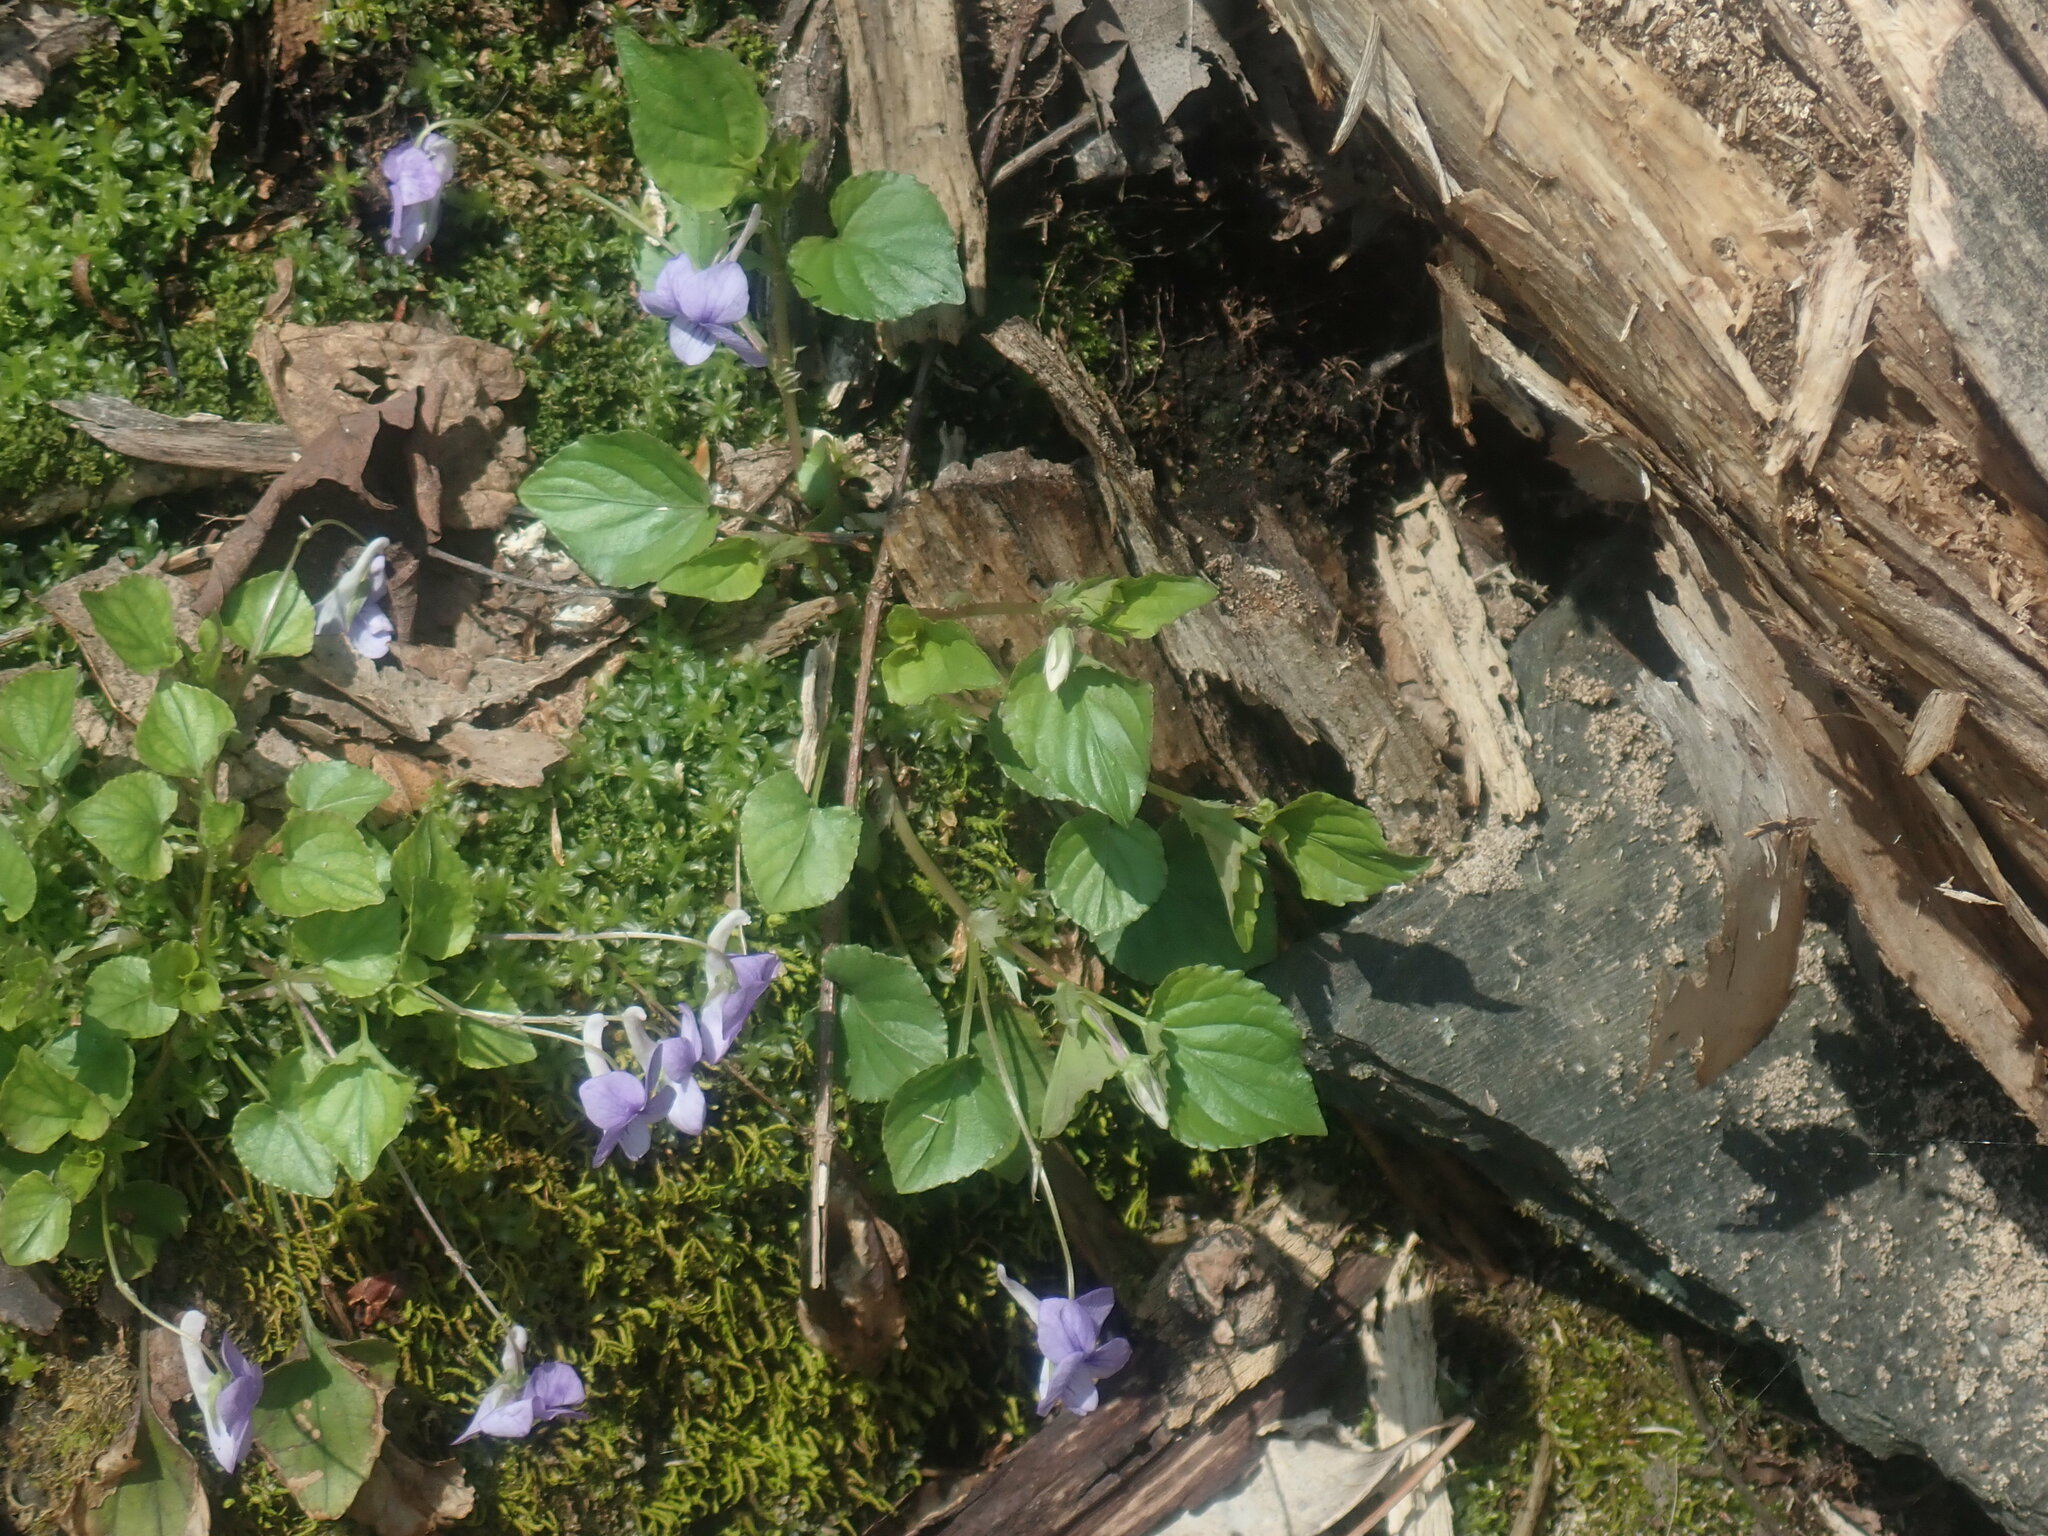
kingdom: Plantae
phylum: Tracheophyta
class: Magnoliopsida
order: Malpighiales
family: Violaceae
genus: Viola
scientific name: Viola rostrata
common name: Long-spur violet
